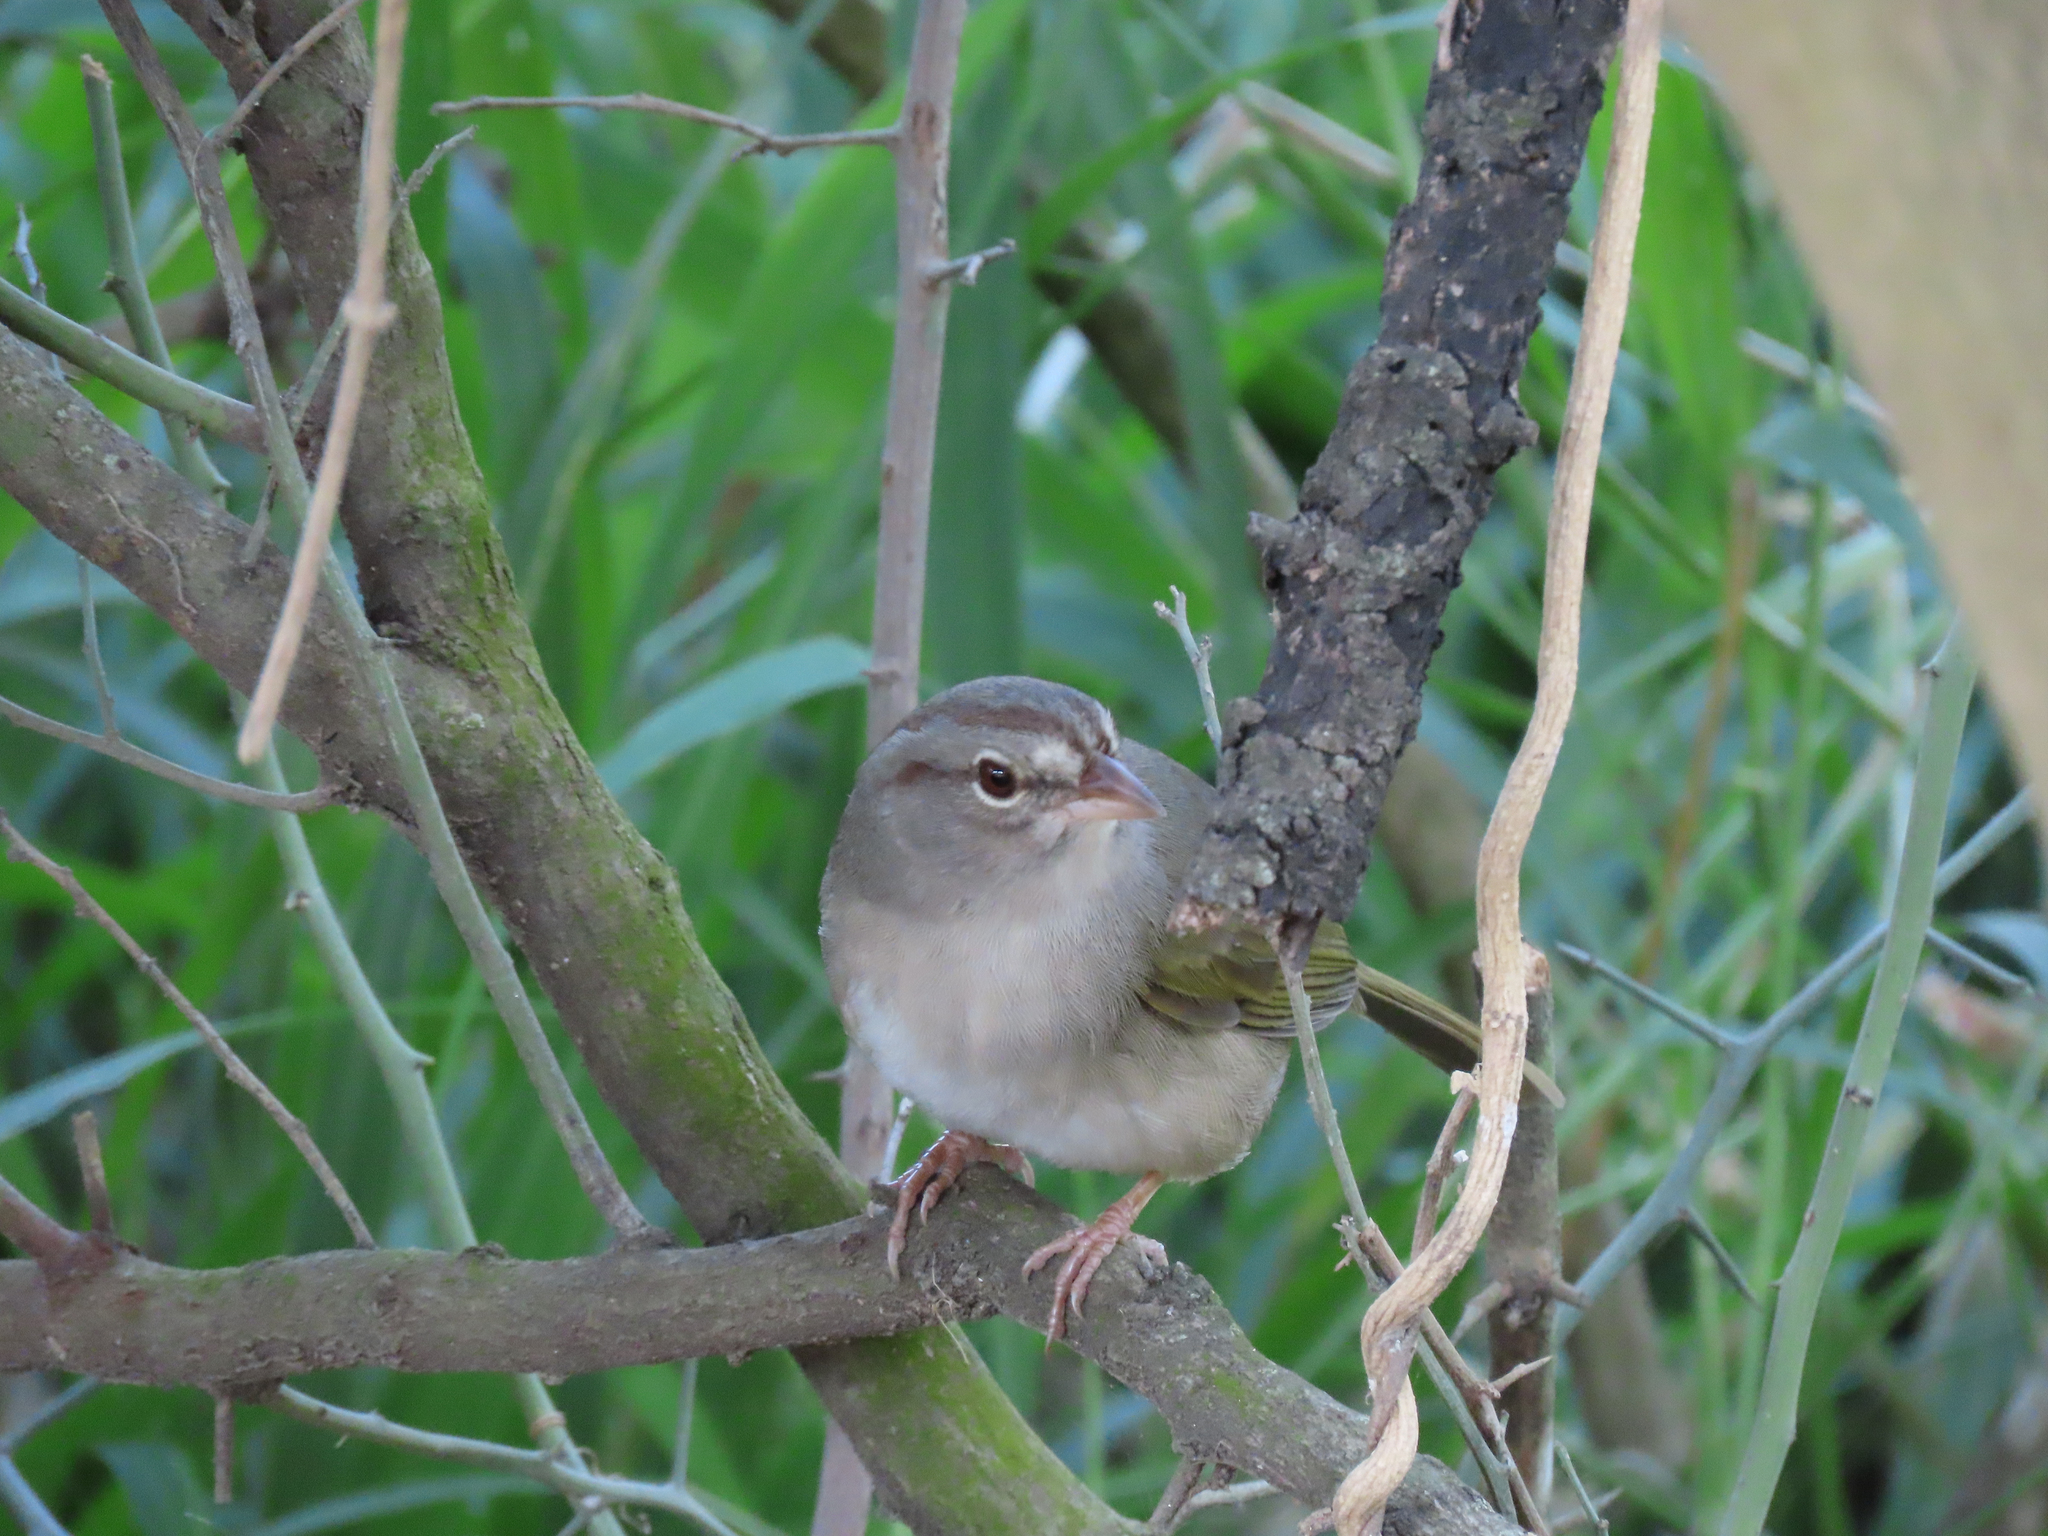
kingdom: Animalia
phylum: Chordata
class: Aves
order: Passeriformes
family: Passerellidae
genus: Arremonops
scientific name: Arremonops rufivirgatus
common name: Olive sparrow
